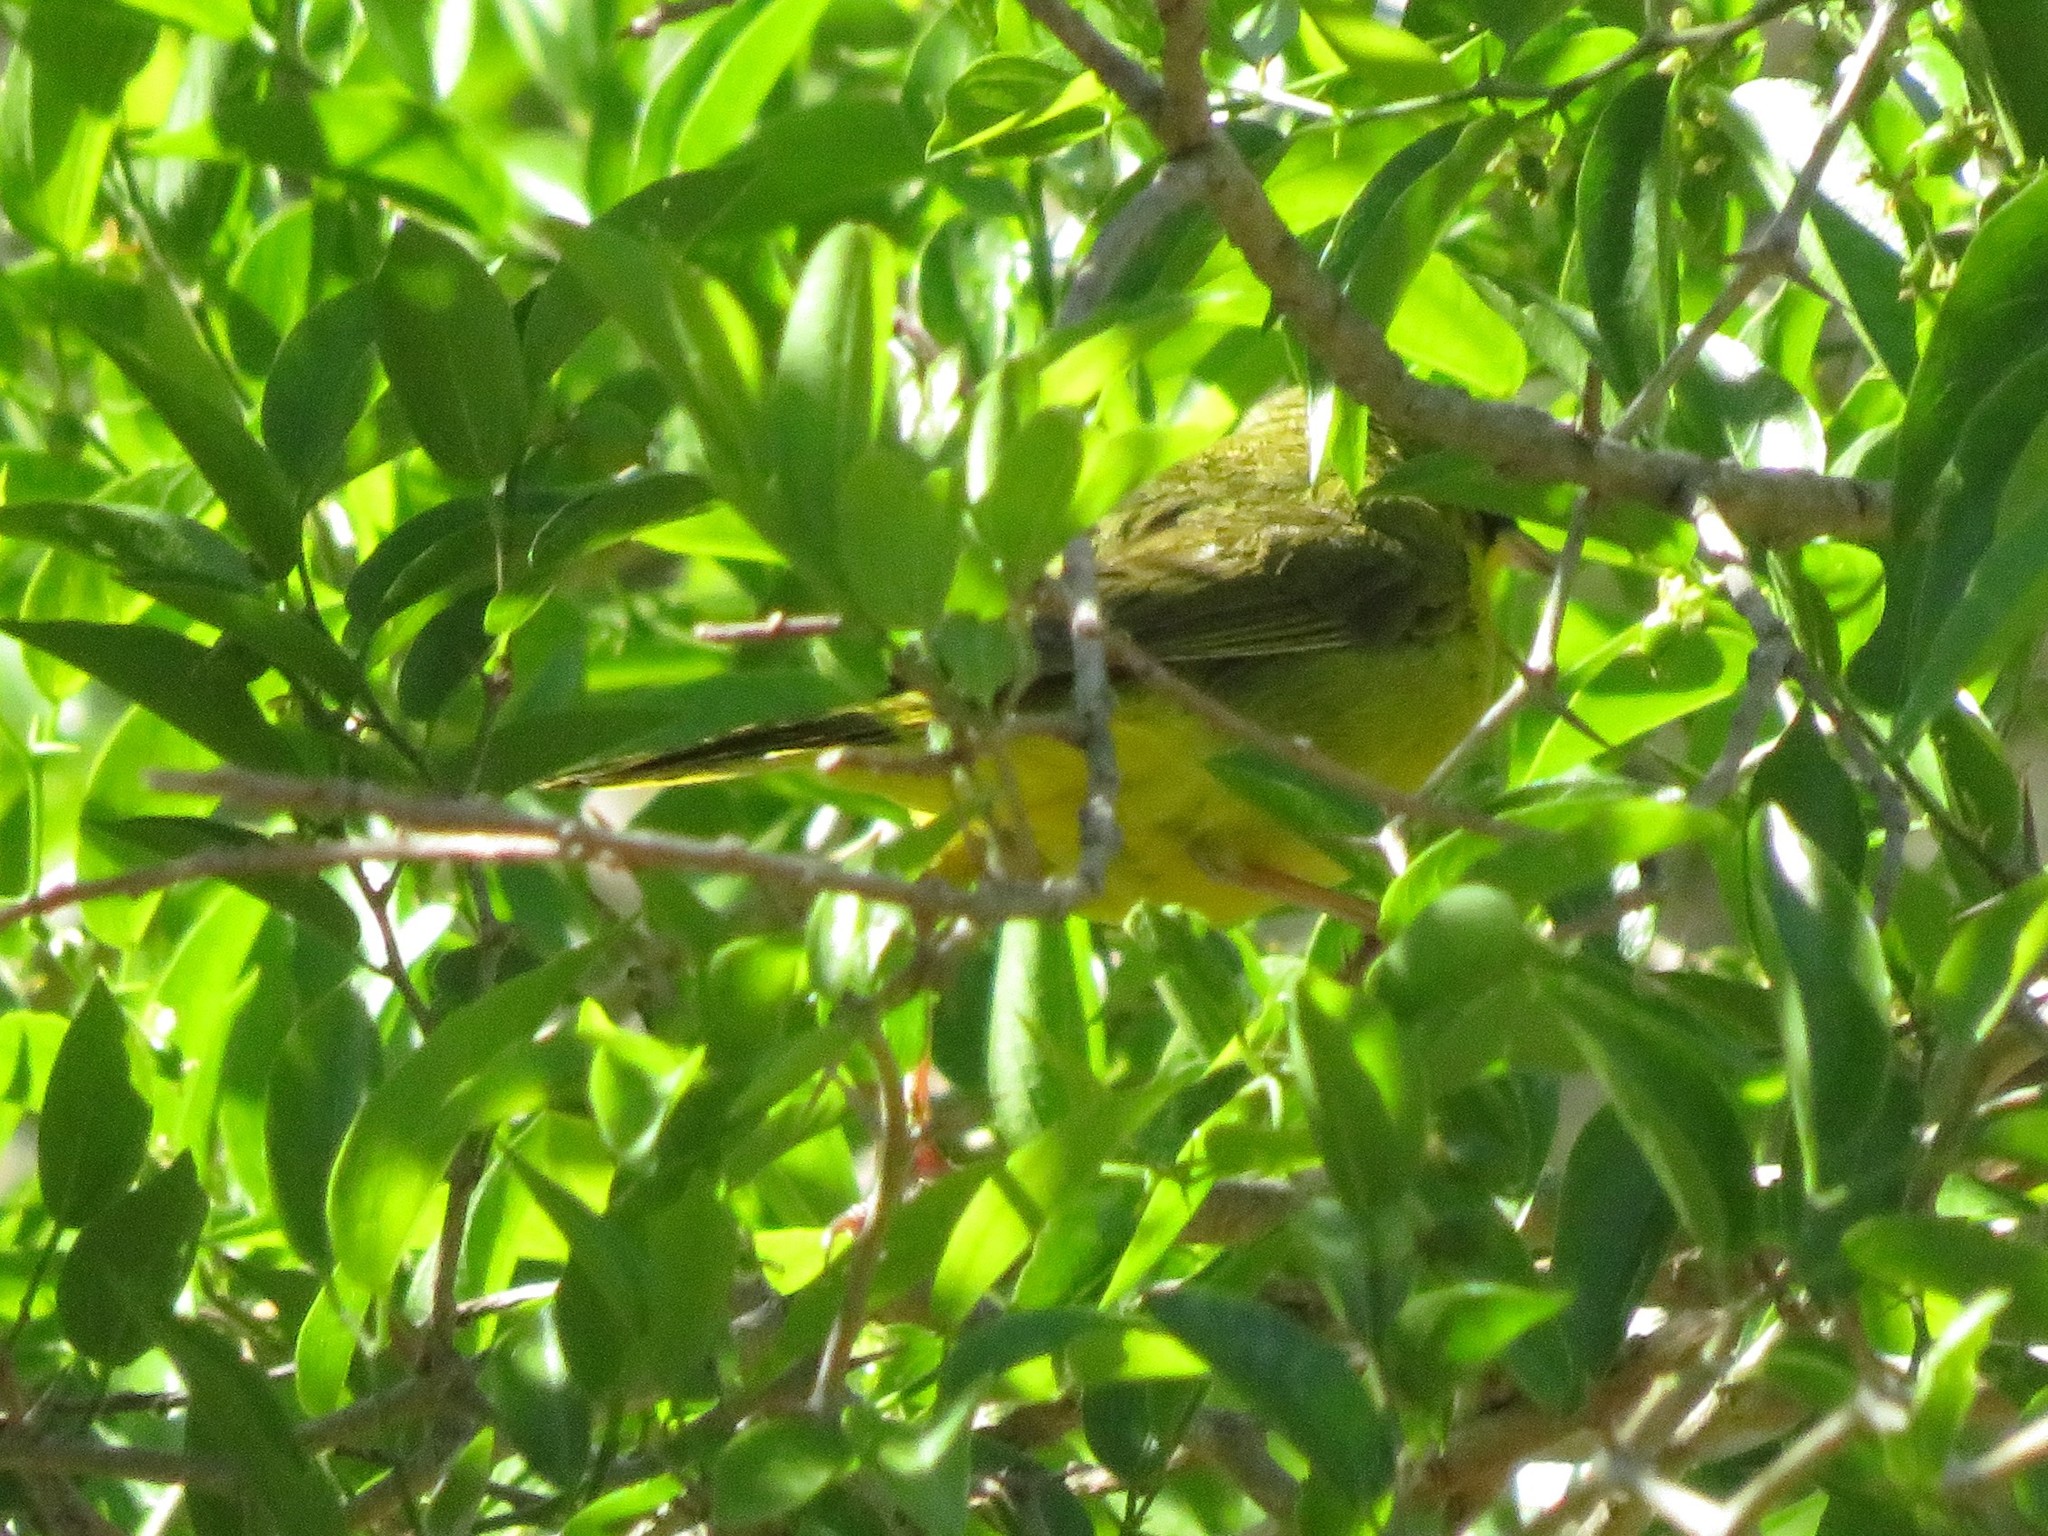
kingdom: Animalia
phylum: Chordata
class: Aves
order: Passeriformes
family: Parulidae
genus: Geothlypis
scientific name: Geothlypis velata
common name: Southern yellowthroat
